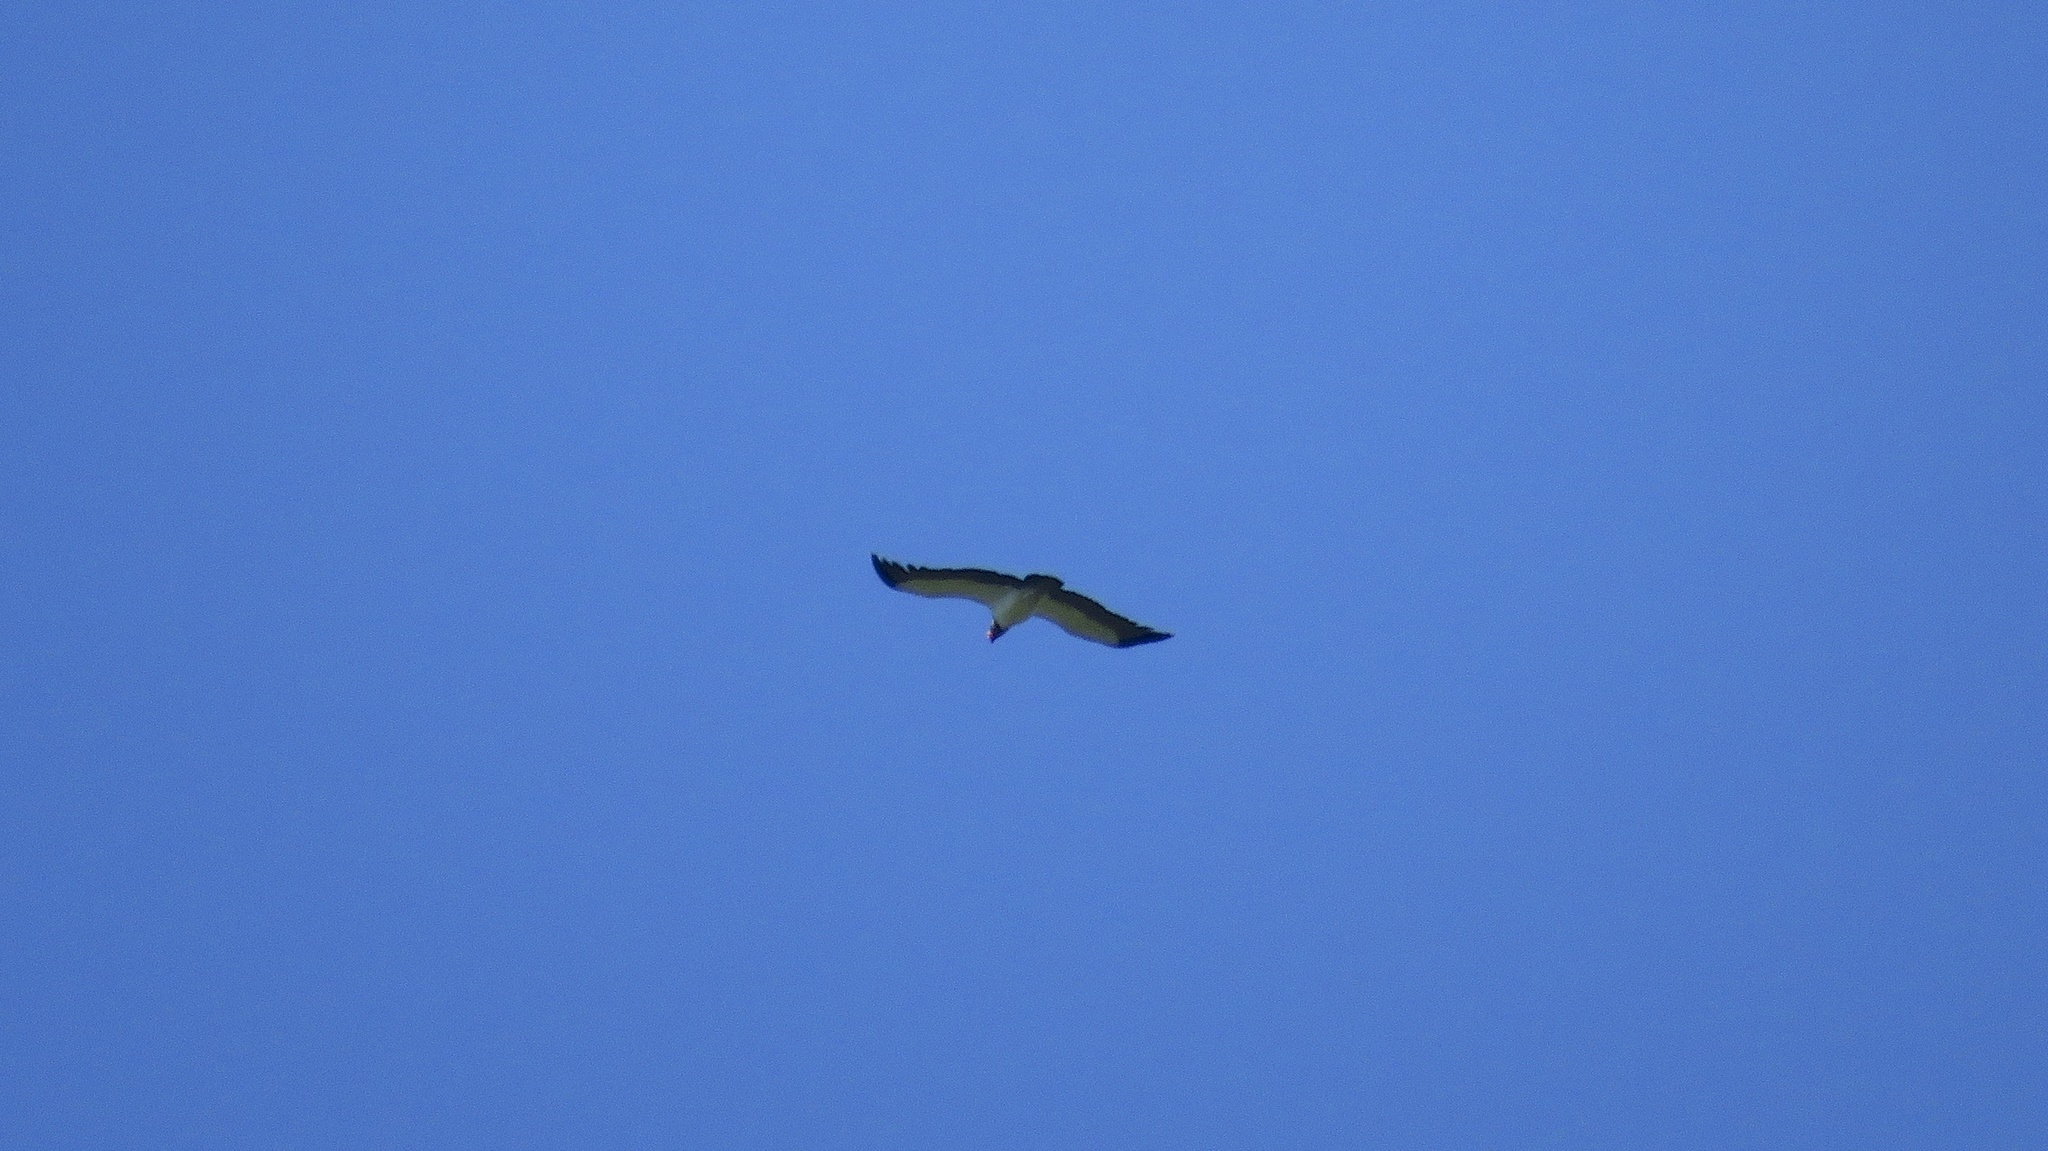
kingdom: Animalia
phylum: Chordata
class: Aves
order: Accipitriformes
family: Cathartidae
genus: Sarcoramphus
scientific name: Sarcoramphus papa
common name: King vulture
